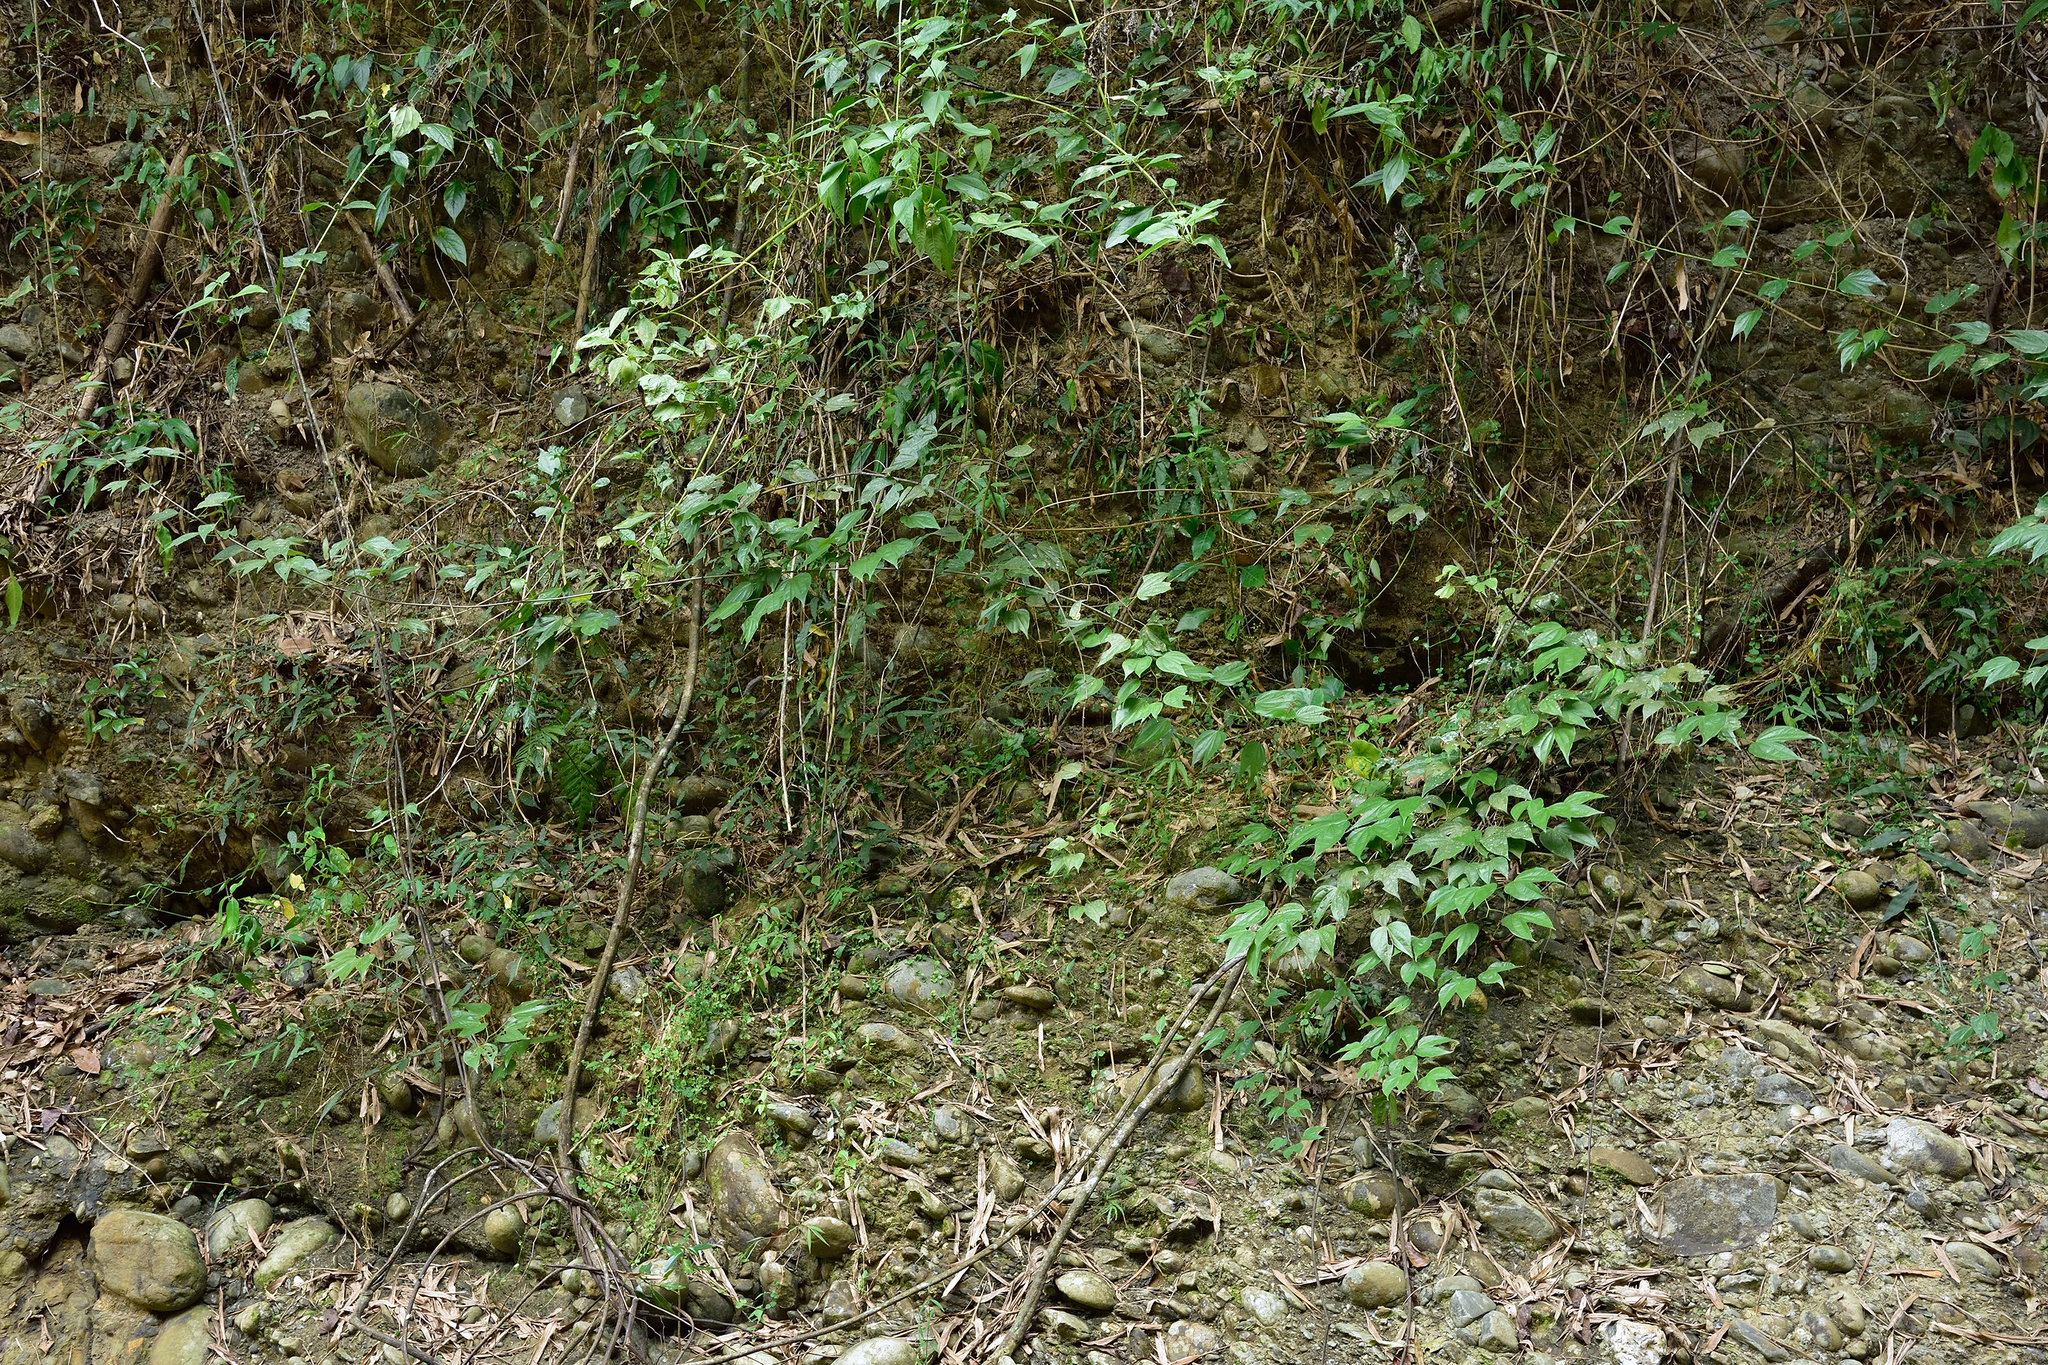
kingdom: Plantae
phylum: Tracheophyta
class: Magnoliopsida
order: Fabales
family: Fabaceae
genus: Phanera
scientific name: Phanera championii
